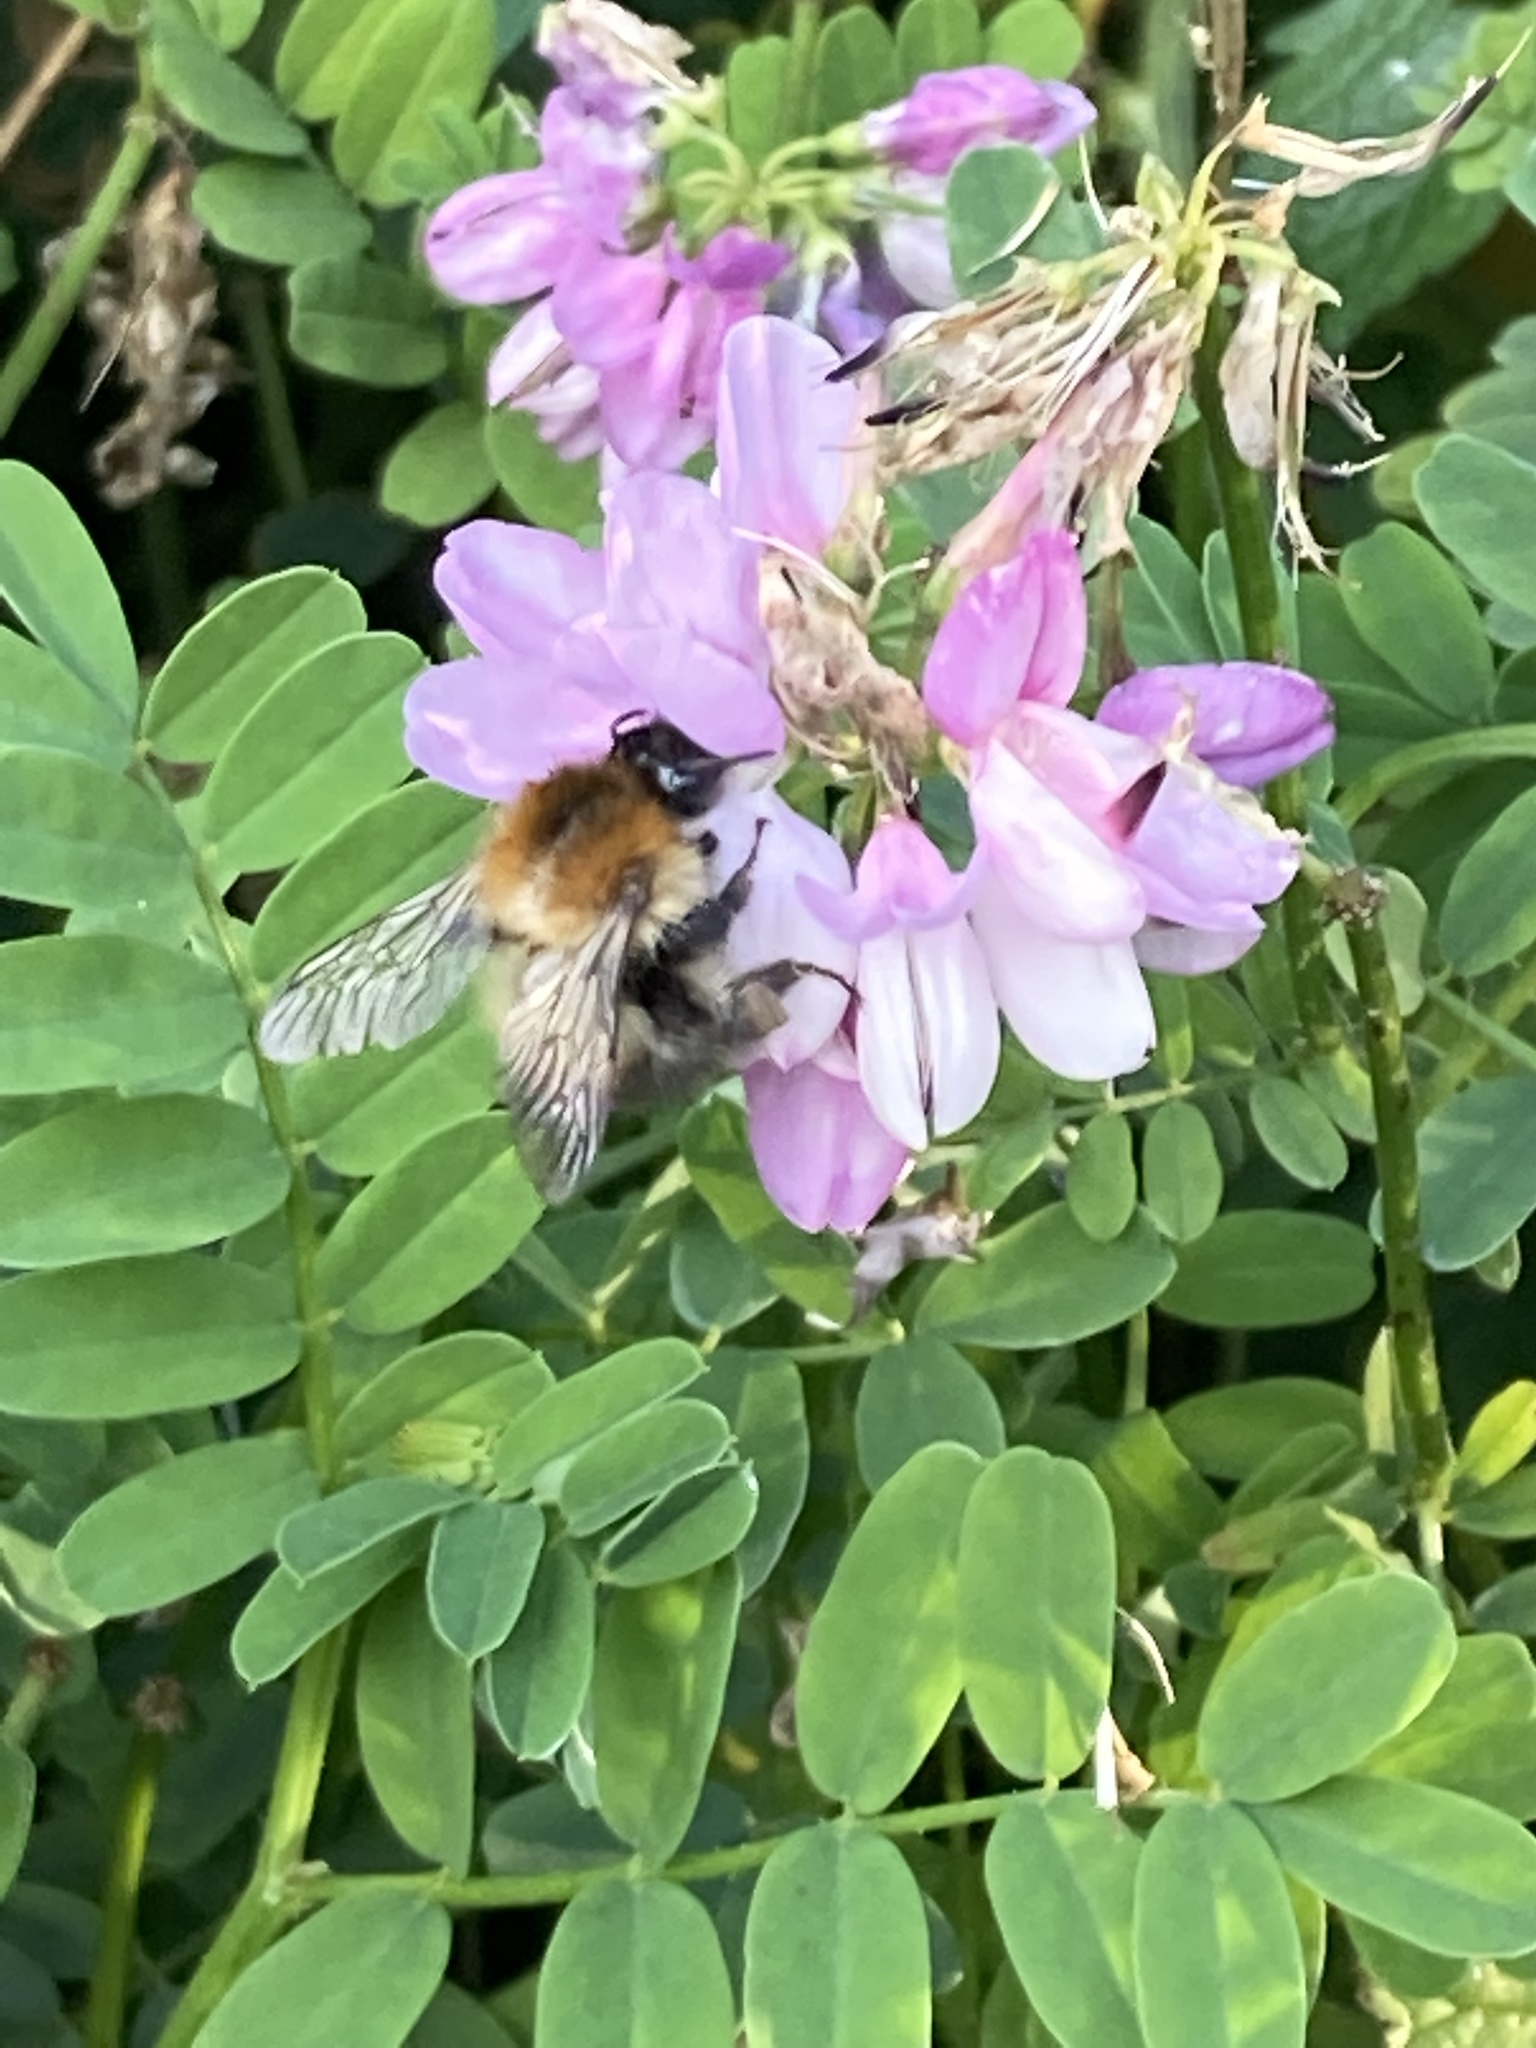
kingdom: Animalia
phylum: Arthropoda
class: Insecta
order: Hymenoptera
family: Apidae
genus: Bombus
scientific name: Bombus pascuorum
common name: Common carder bee
